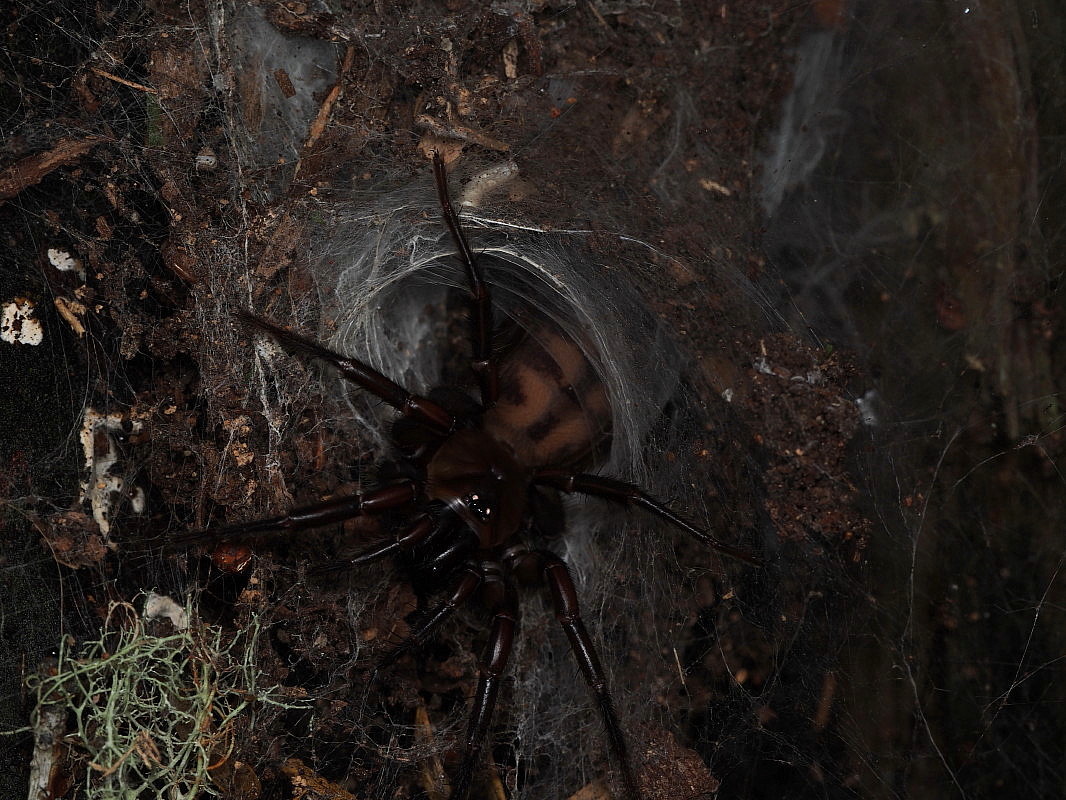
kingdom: Animalia
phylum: Arthropoda
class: Arachnida
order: Araneae
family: Hexathelidae
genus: Hexathele
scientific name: Hexathele kohua
